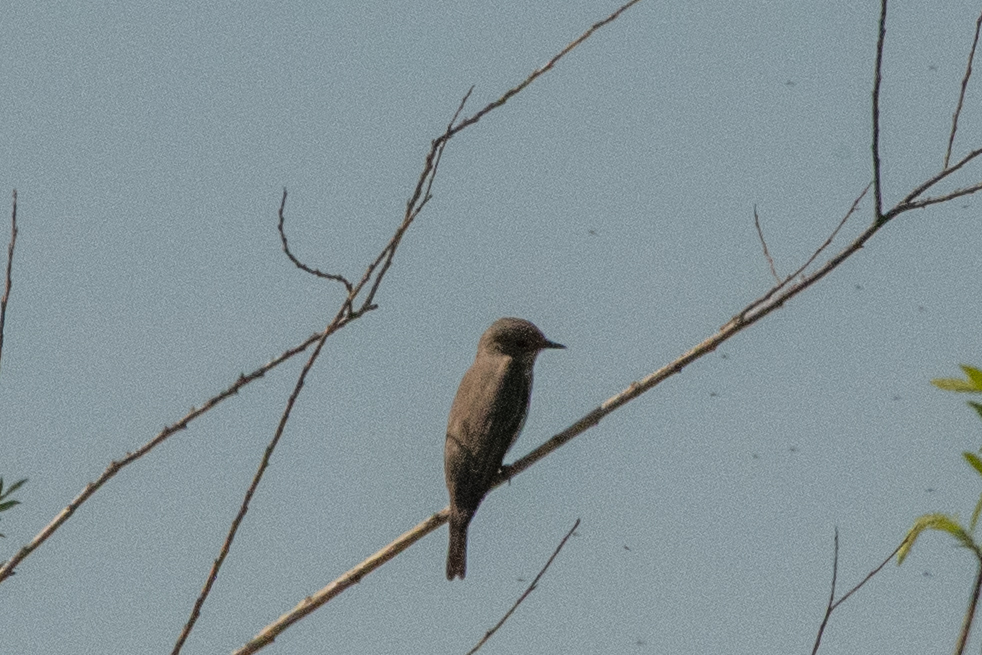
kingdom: Animalia
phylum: Chordata
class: Aves
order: Passeriformes
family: Muscicapidae
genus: Muscicapa
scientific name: Muscicapa striata
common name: Spotted flycatcher
